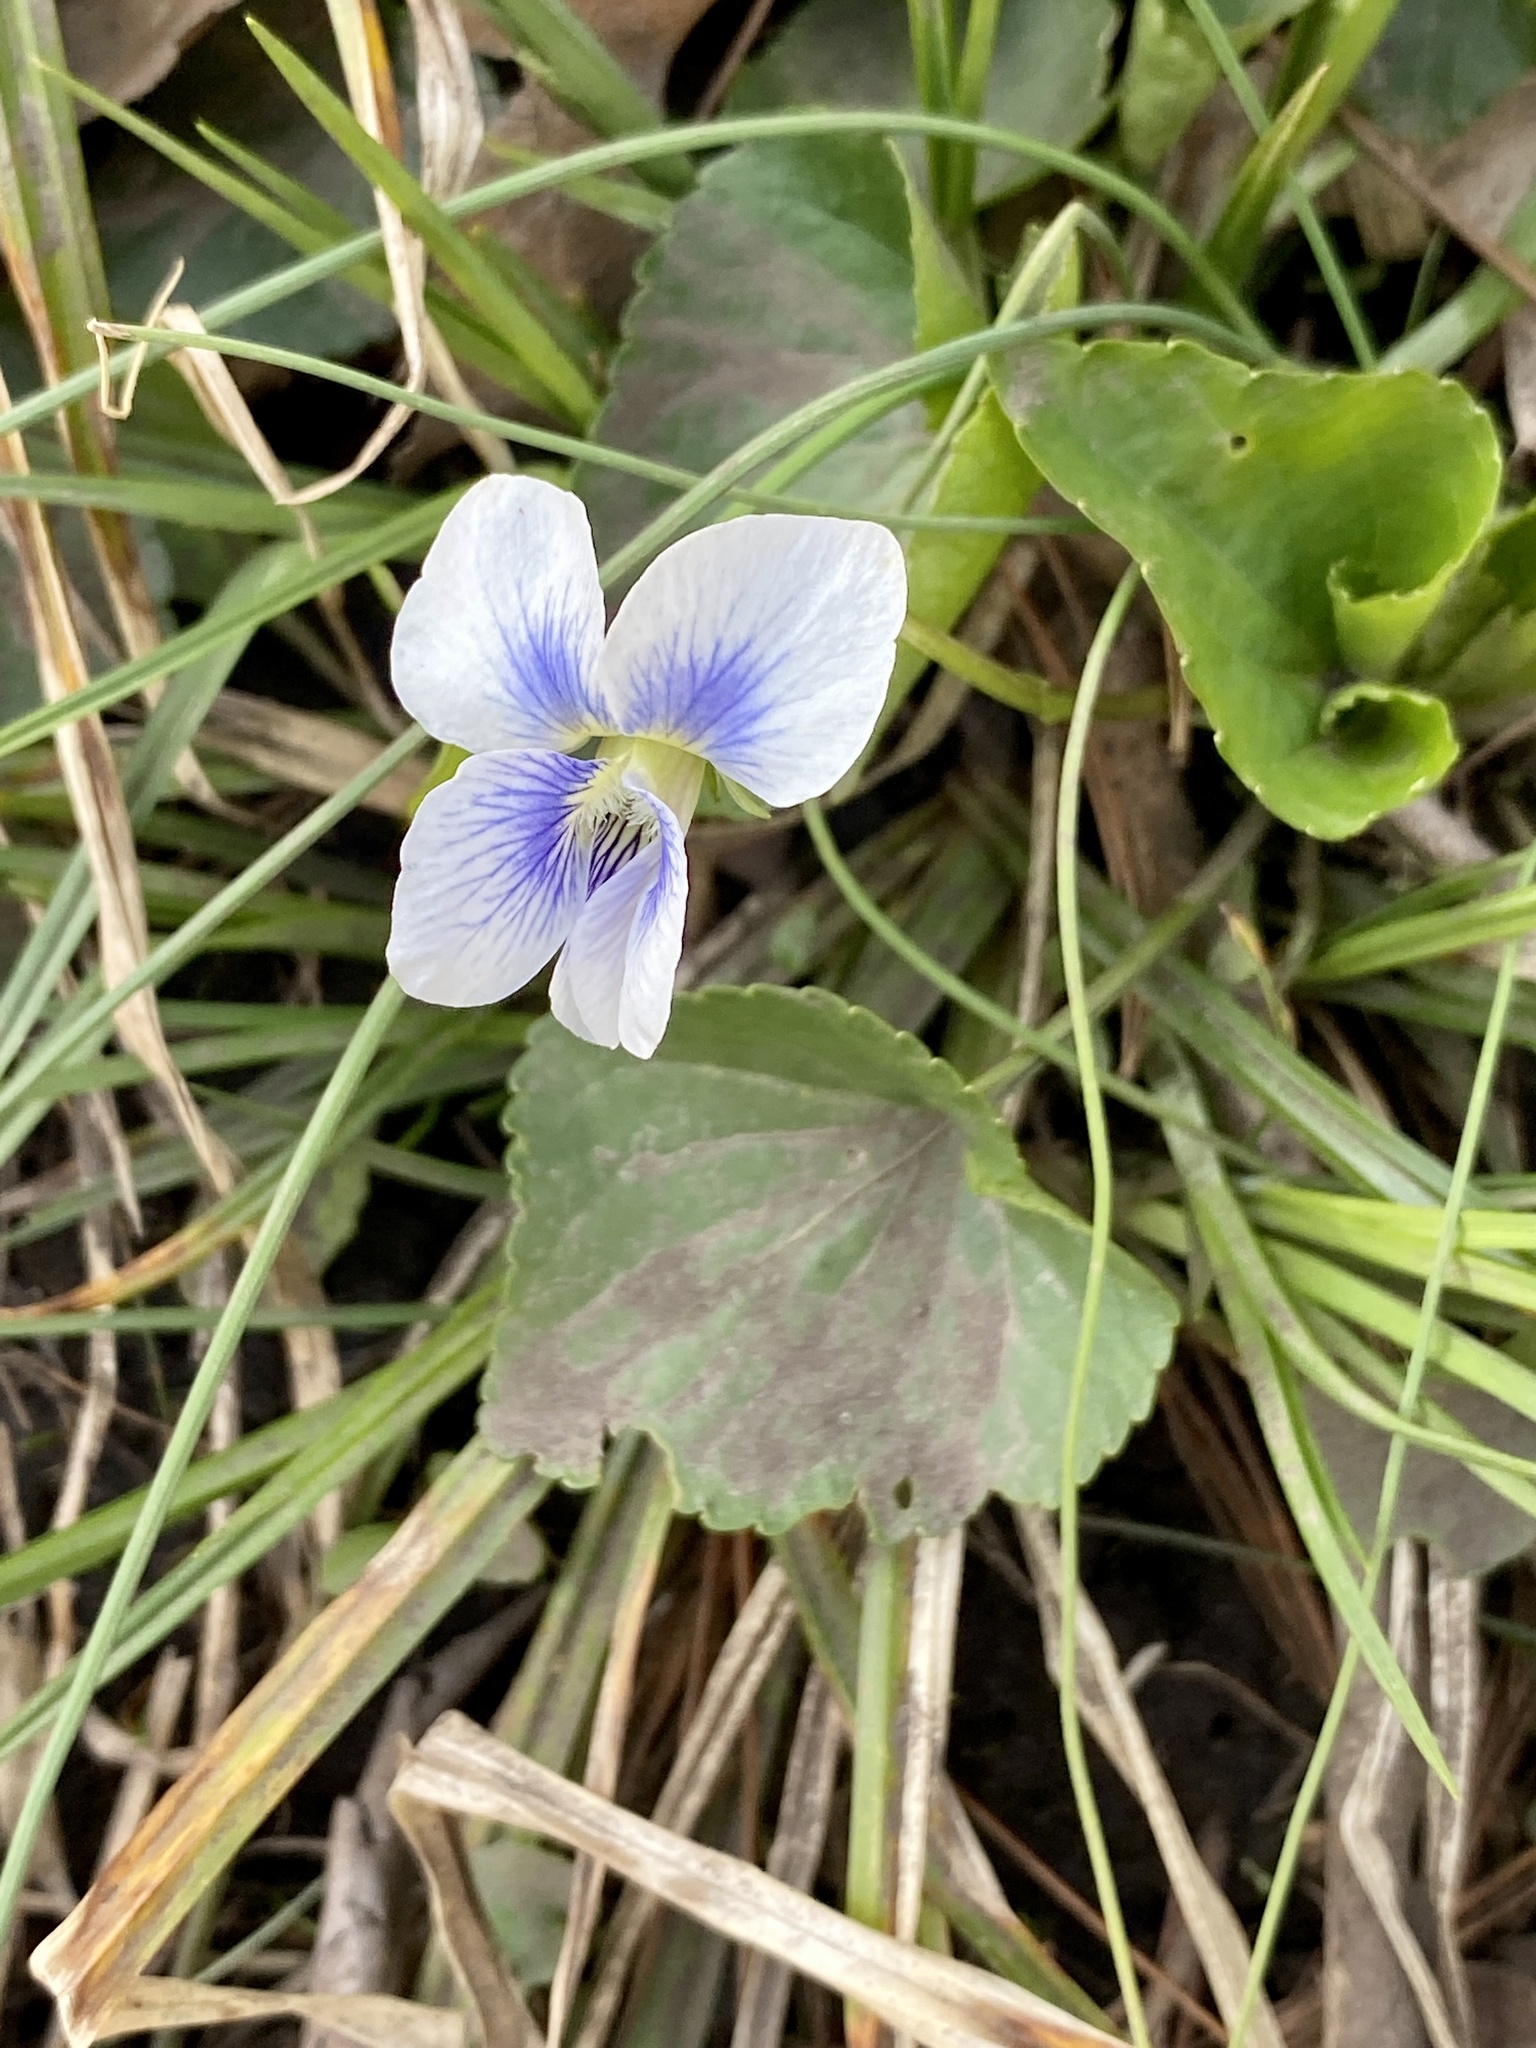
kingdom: Plantae
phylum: Tracheophyta
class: Magnoliopsida
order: Malpighiales
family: Violaceae
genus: Viola
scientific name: Viola sororia
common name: Dooryard violet
